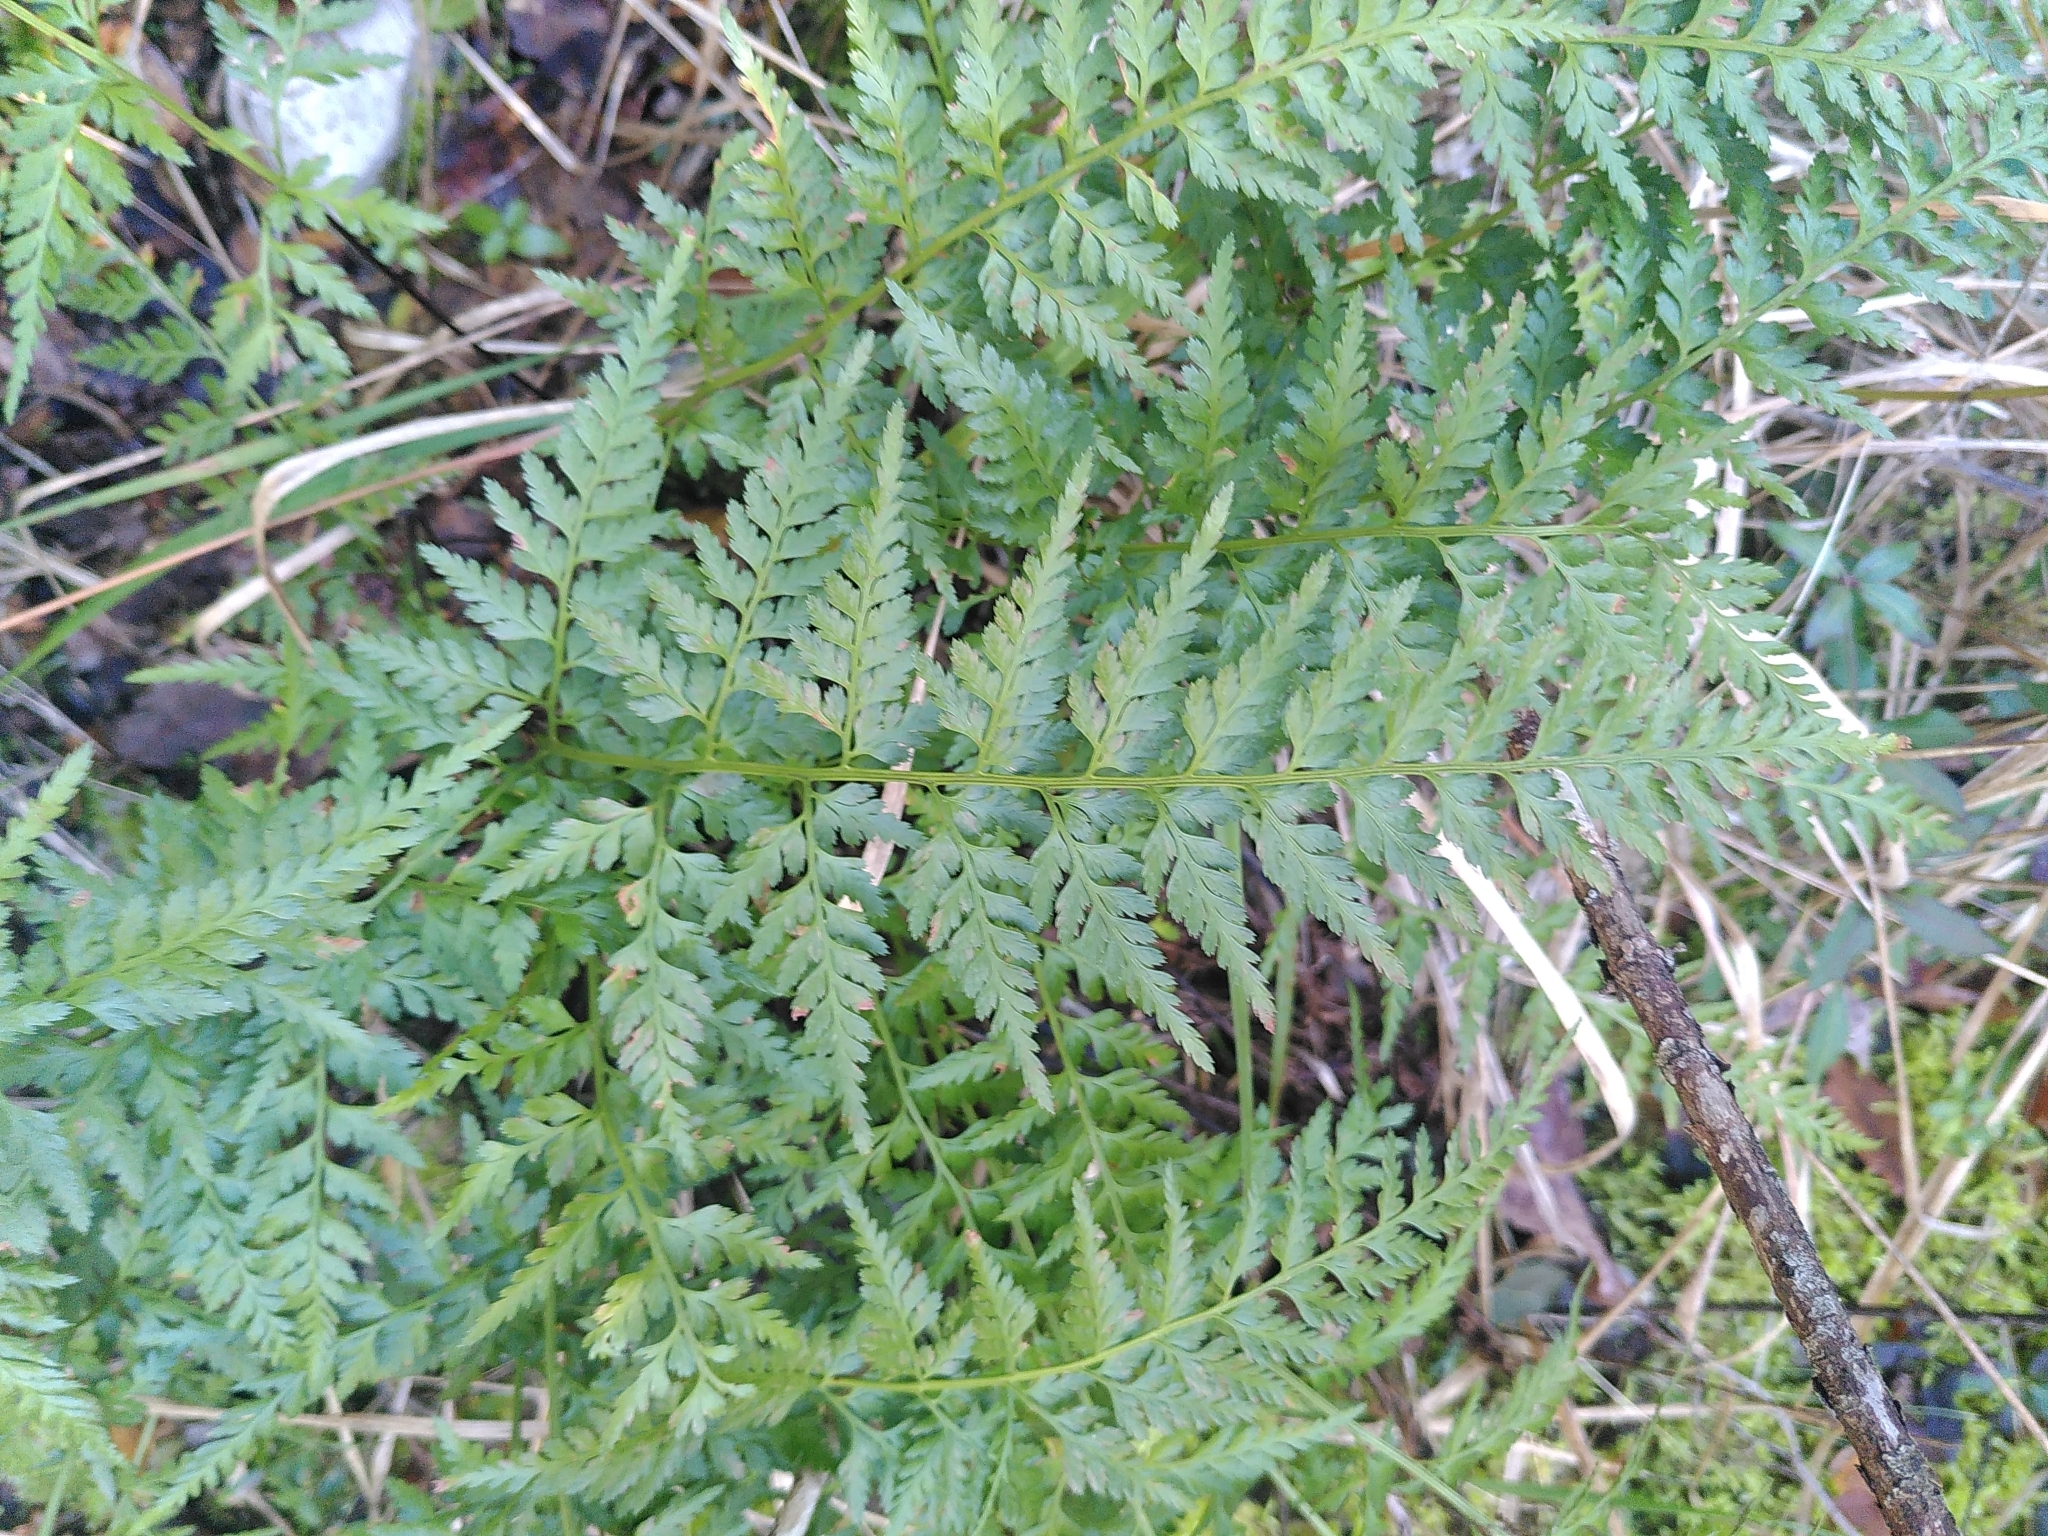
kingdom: Plantae
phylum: Tracheophyta
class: Polypodiopsida
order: Polypodiales
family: Aspleniaceae
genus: Asplenium
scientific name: Asplenium onopteris
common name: Irish spleenwort
